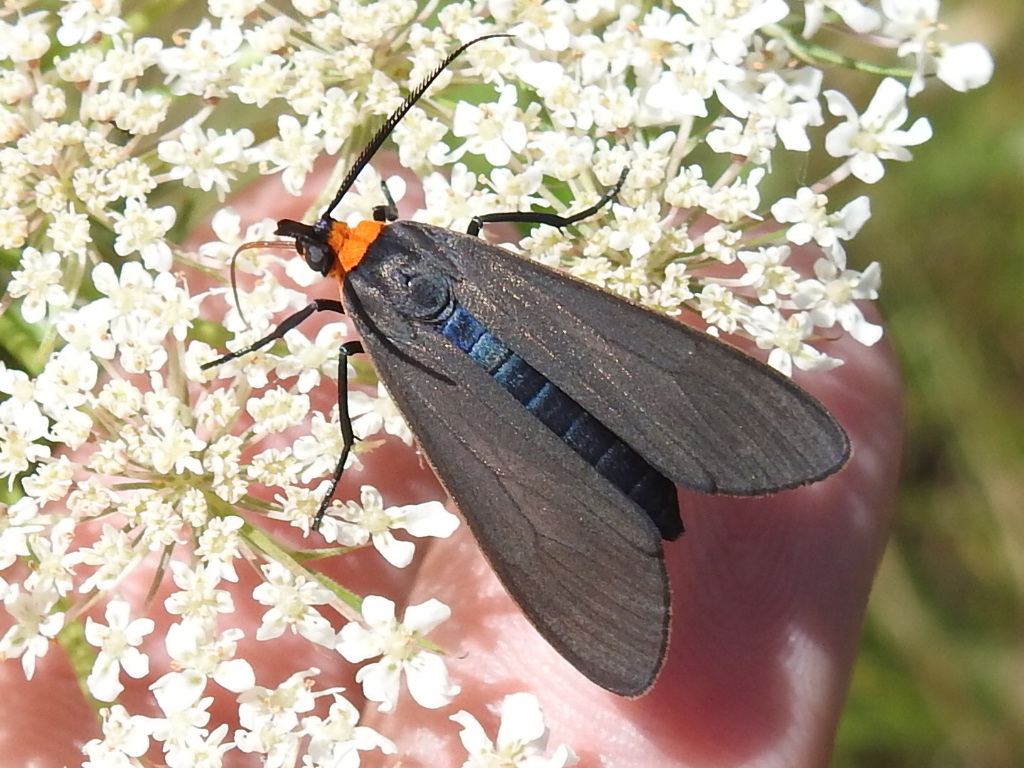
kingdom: Animalia
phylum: Arthropoda
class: Insecta
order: Lepidoptera
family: Erebidae
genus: Cisseps
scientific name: Cisseps fulvicollis
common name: Yellow-collared scape moth
